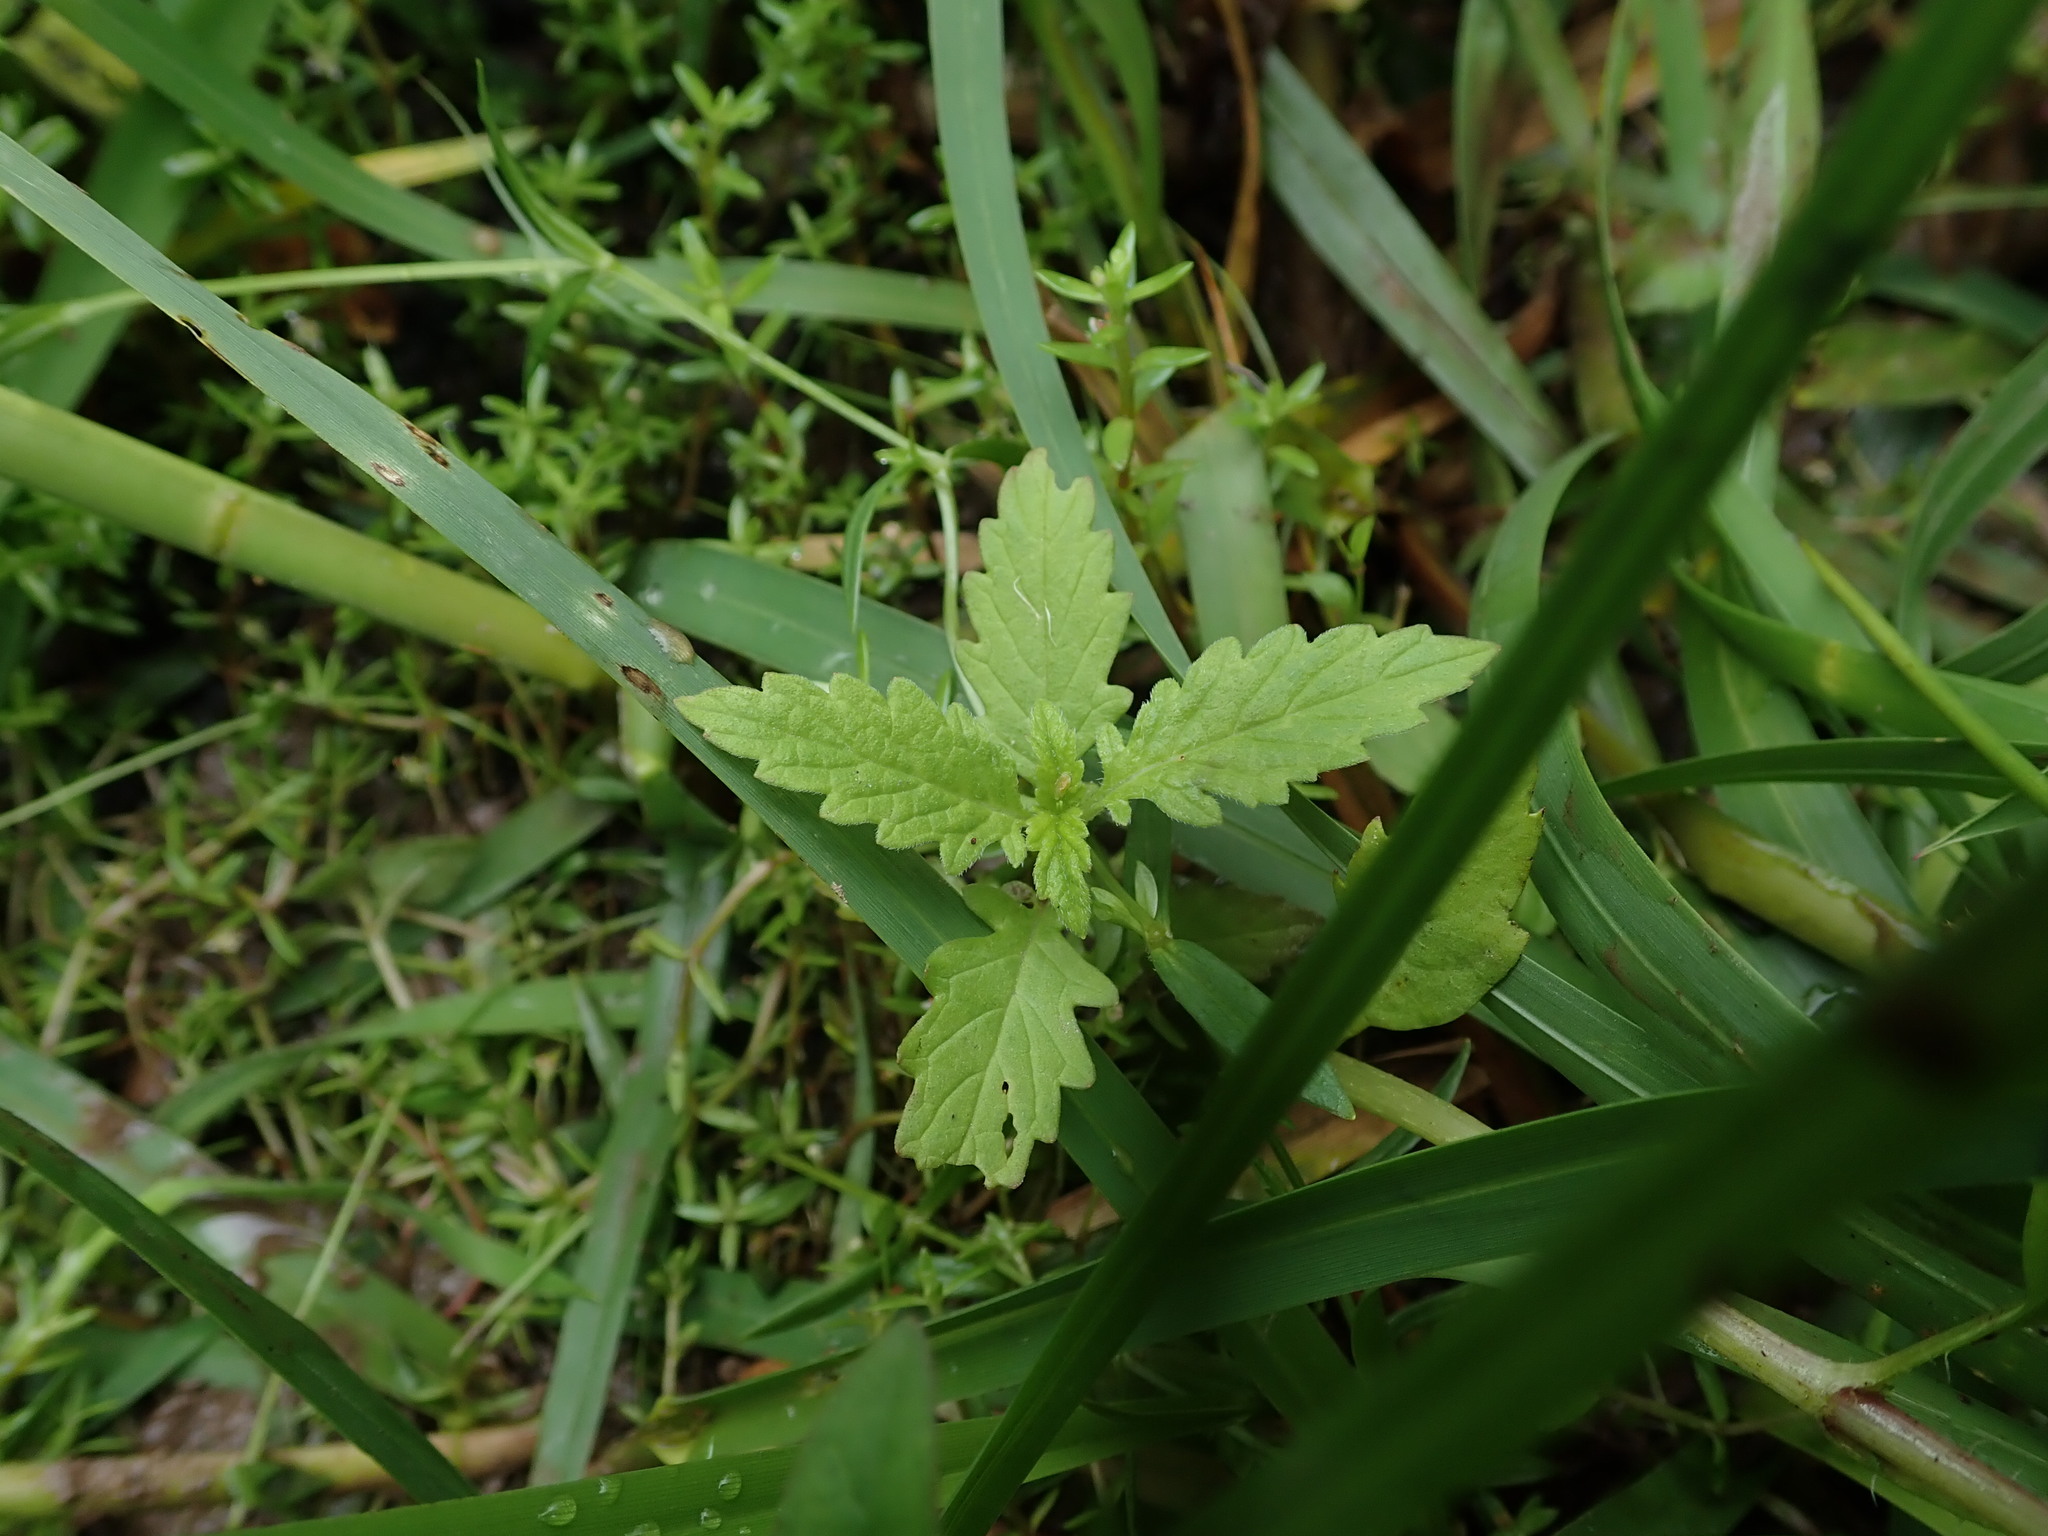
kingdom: Plantae
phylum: Tracheophyta
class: Magnoliopsida
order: Lamiales
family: Lamiaceae
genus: Lycopus
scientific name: Lycopus europaeus
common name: European bugleweed
